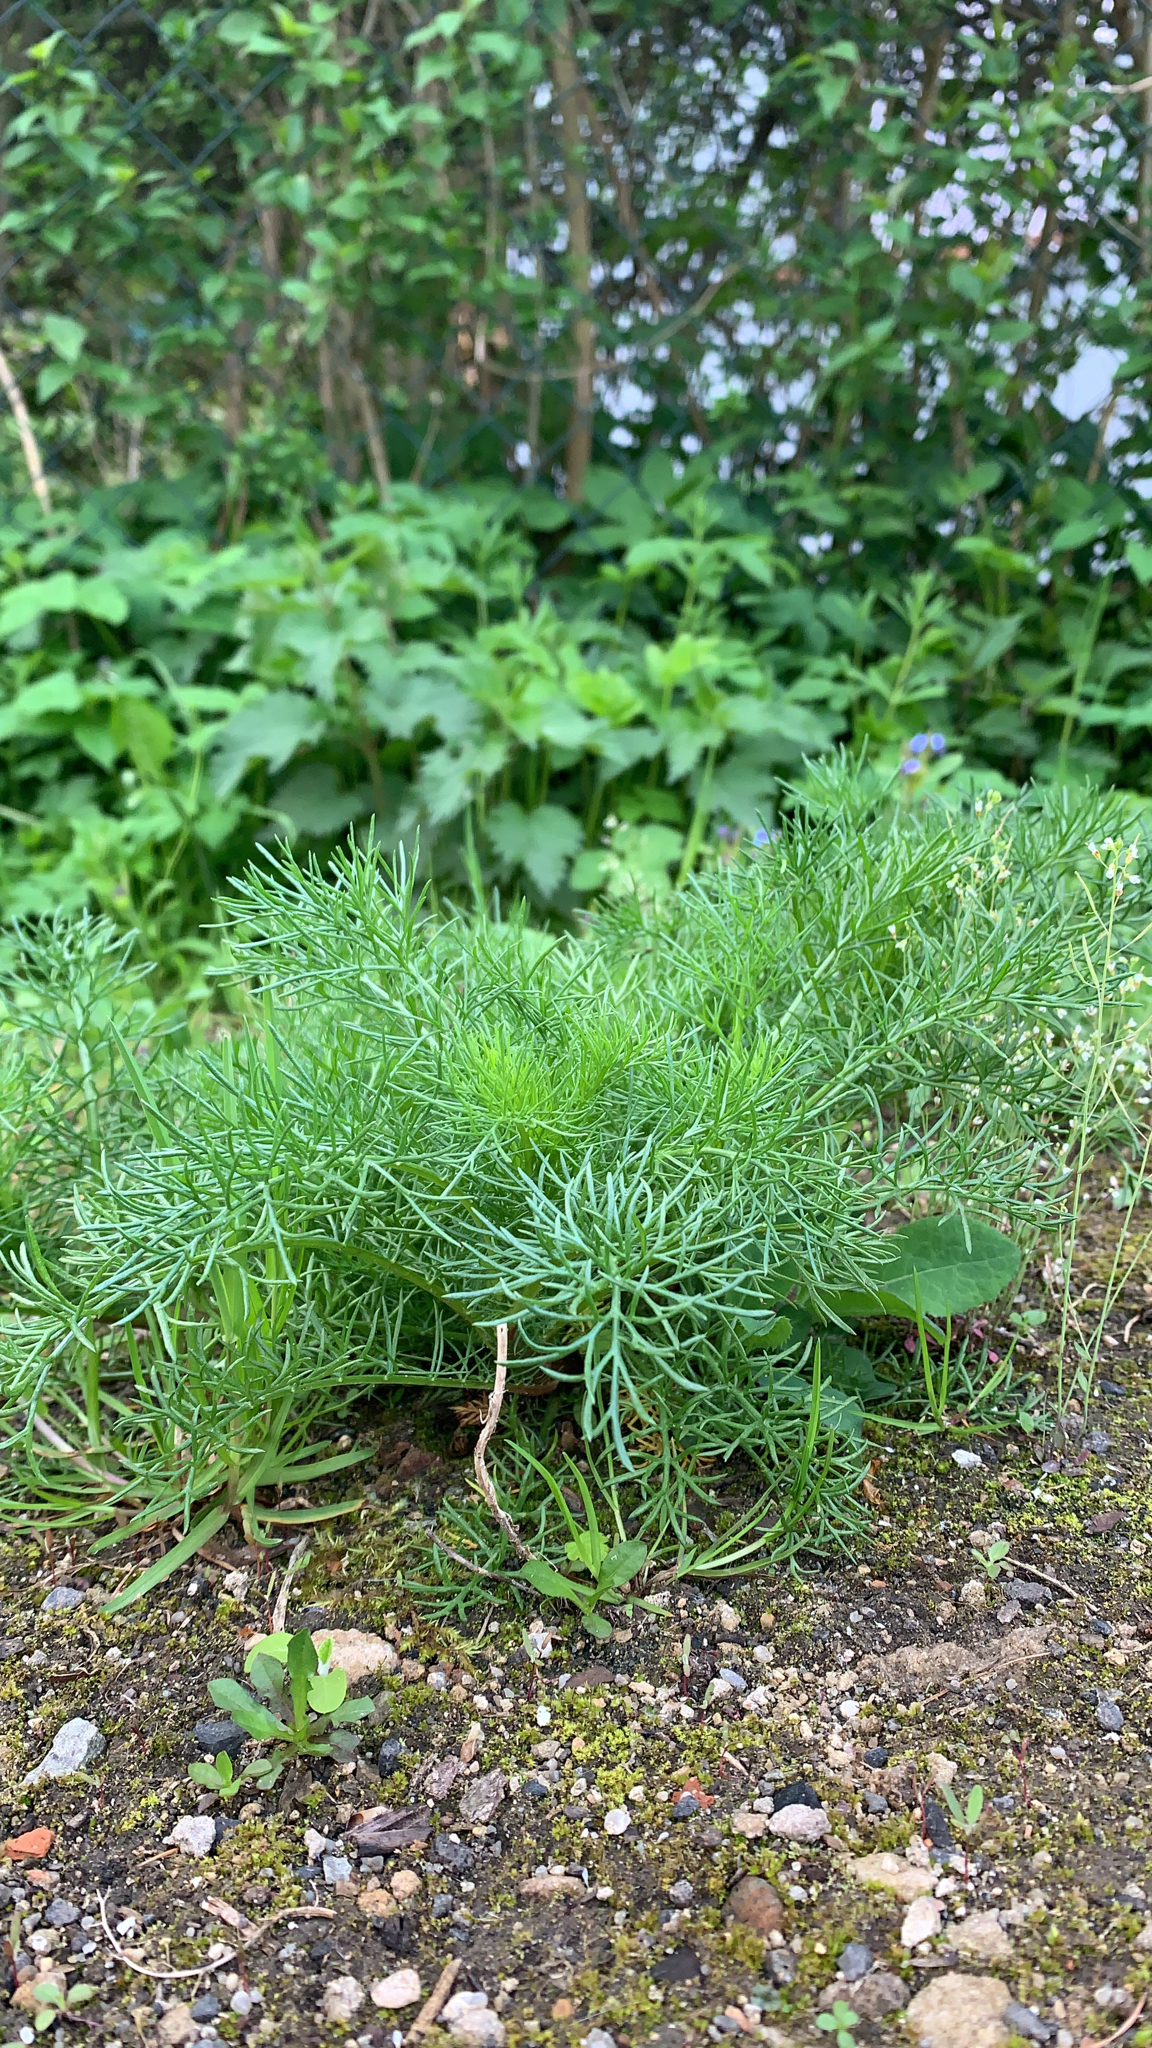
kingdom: Plantae
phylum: Tracheophyta
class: Magnoliopsida
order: Asterales
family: Asteraceae
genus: Tripleurospermum
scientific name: Tripleurospermum inodorum
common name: Scentless mayweed
